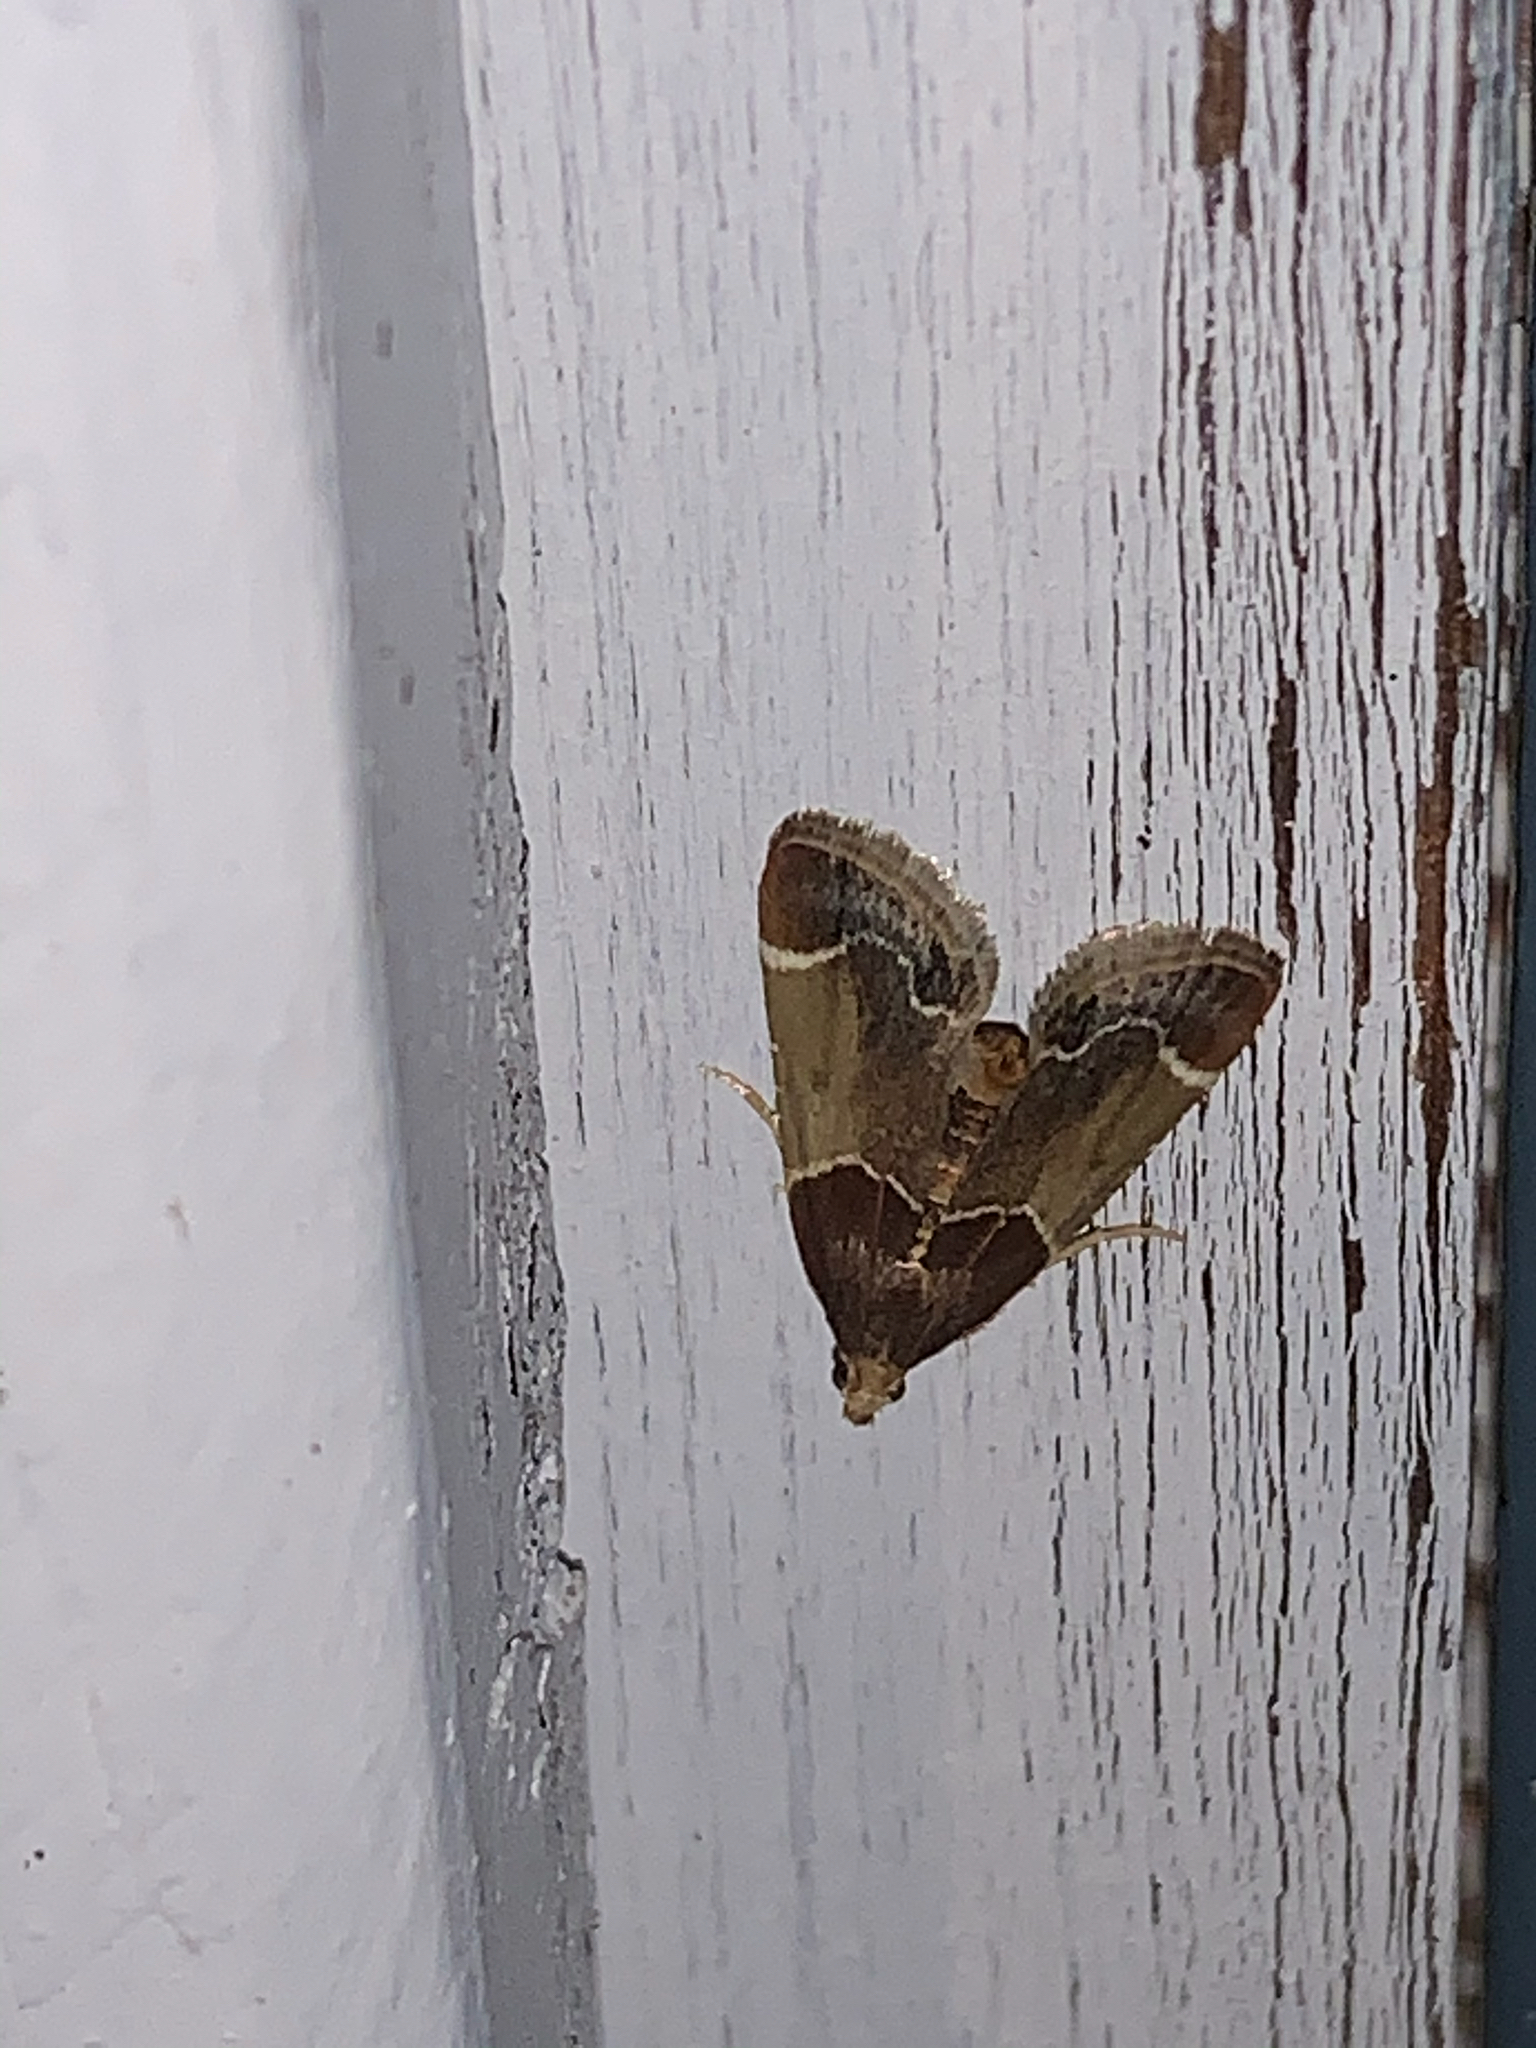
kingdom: Animalia
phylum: Arthropoda
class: Insecta
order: Lepidoptera
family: Pyralidae
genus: Pyralis
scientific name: Pyralis farinalis
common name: Meal moth
